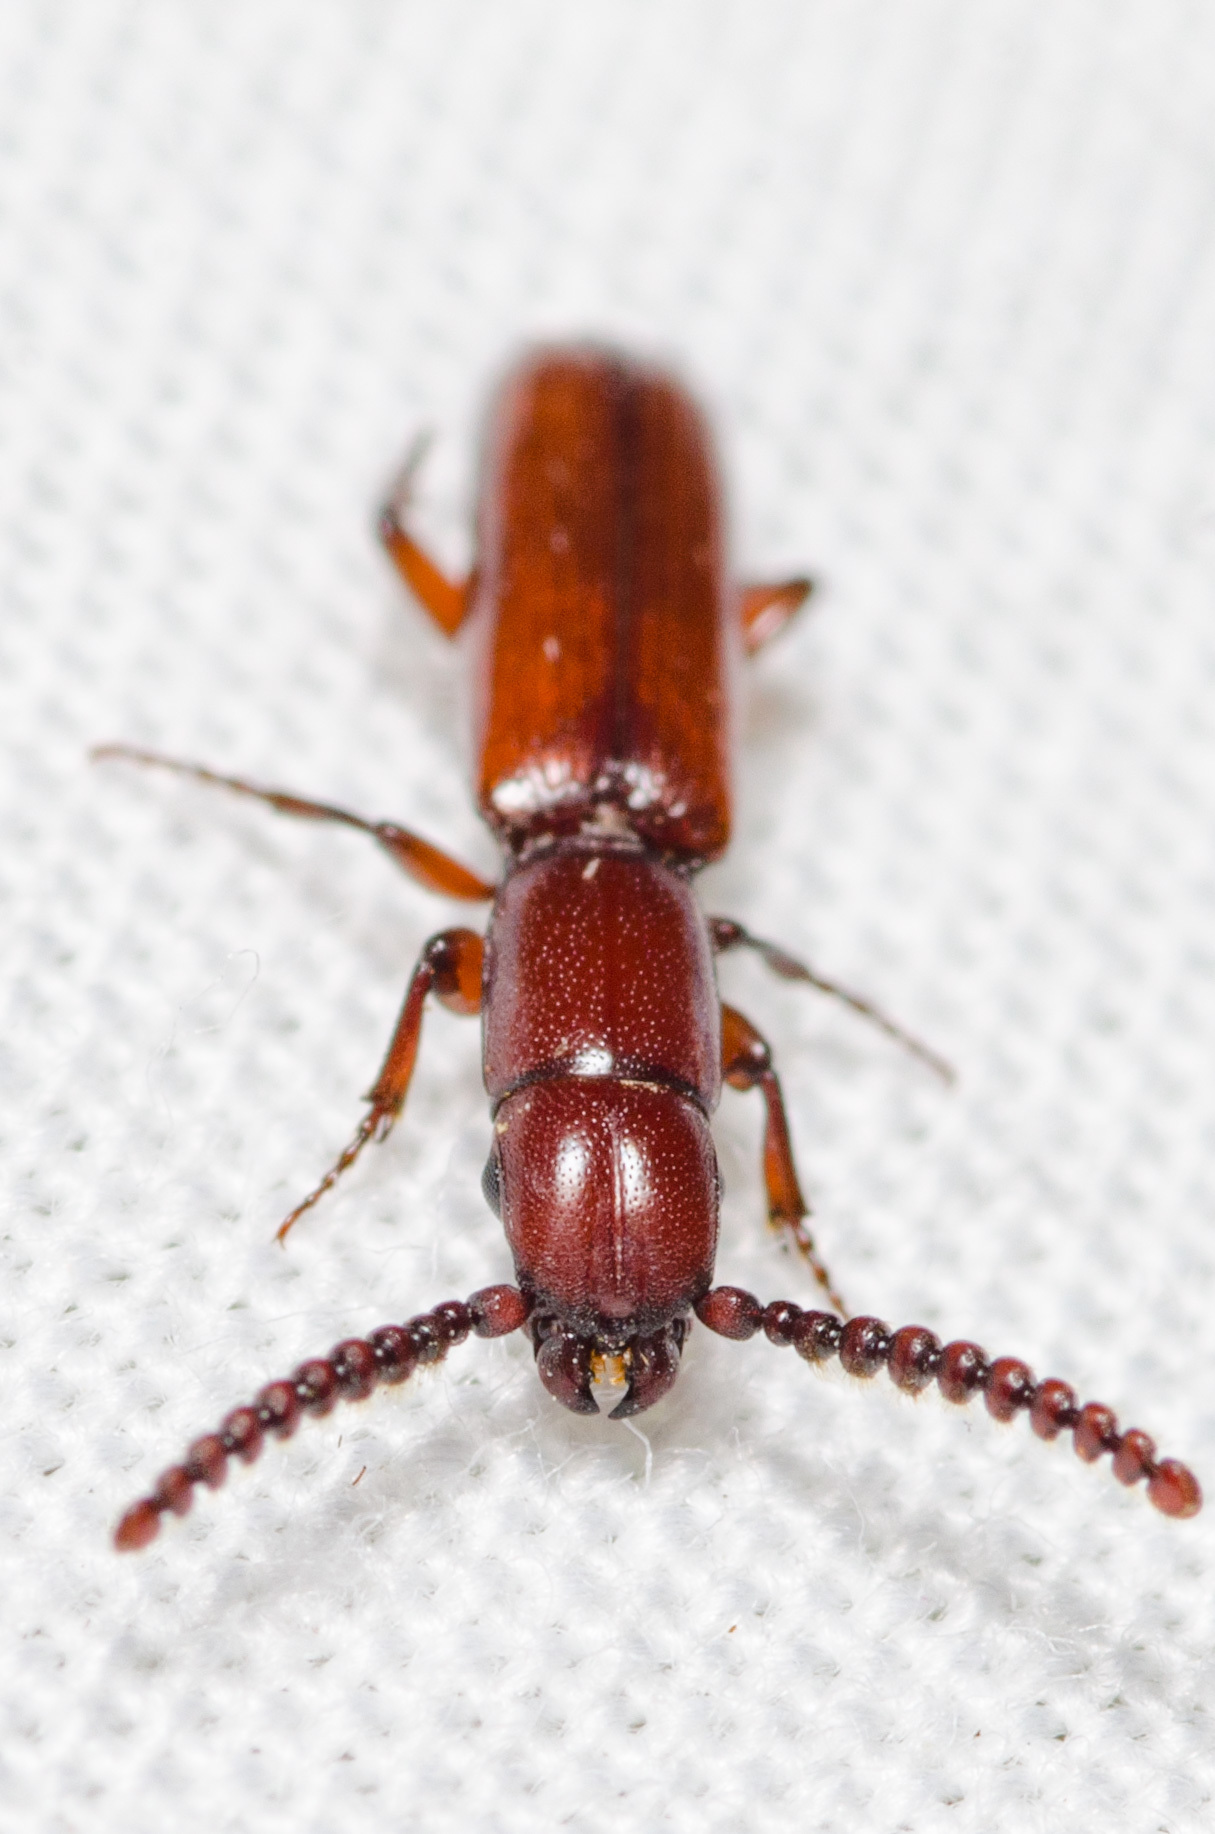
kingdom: Animalia
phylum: Arthropoda
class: Insecta
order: Coleoptera
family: Passandridae
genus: Taphroscelidia
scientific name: Taphroscelidia linearis
